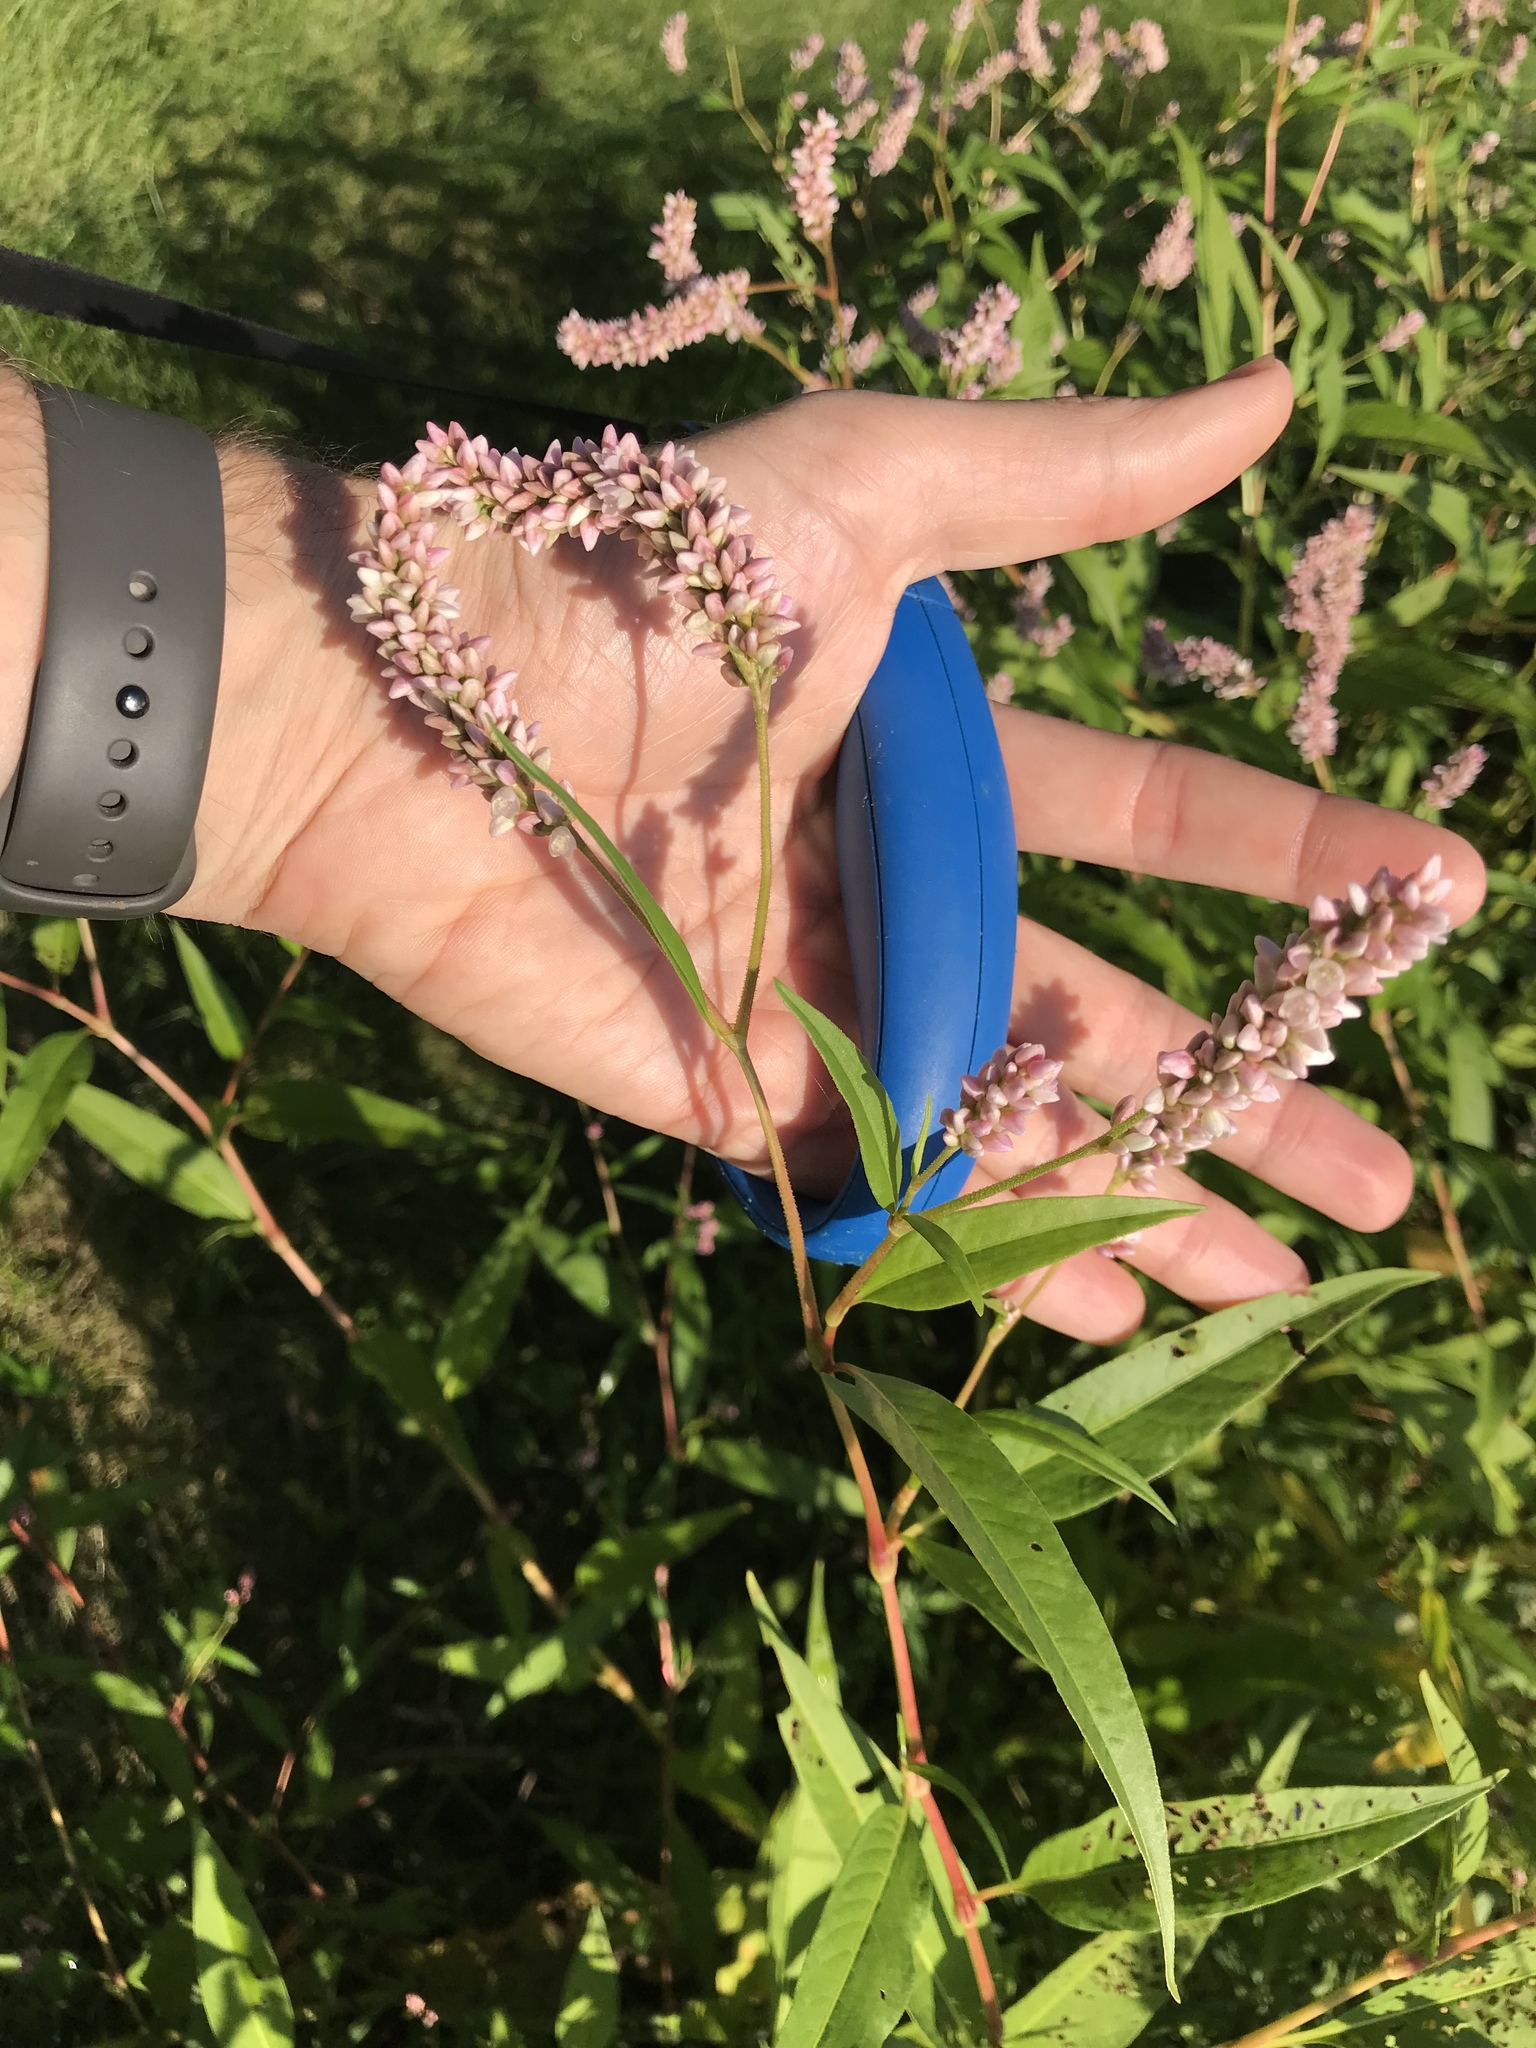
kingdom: Plantae
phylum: Tracheophyta
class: Magnoliopsida
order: Caryophyllales
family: Polygonaceae
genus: Persicaria
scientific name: Persicaria pensylvanica
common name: Pinkweed
